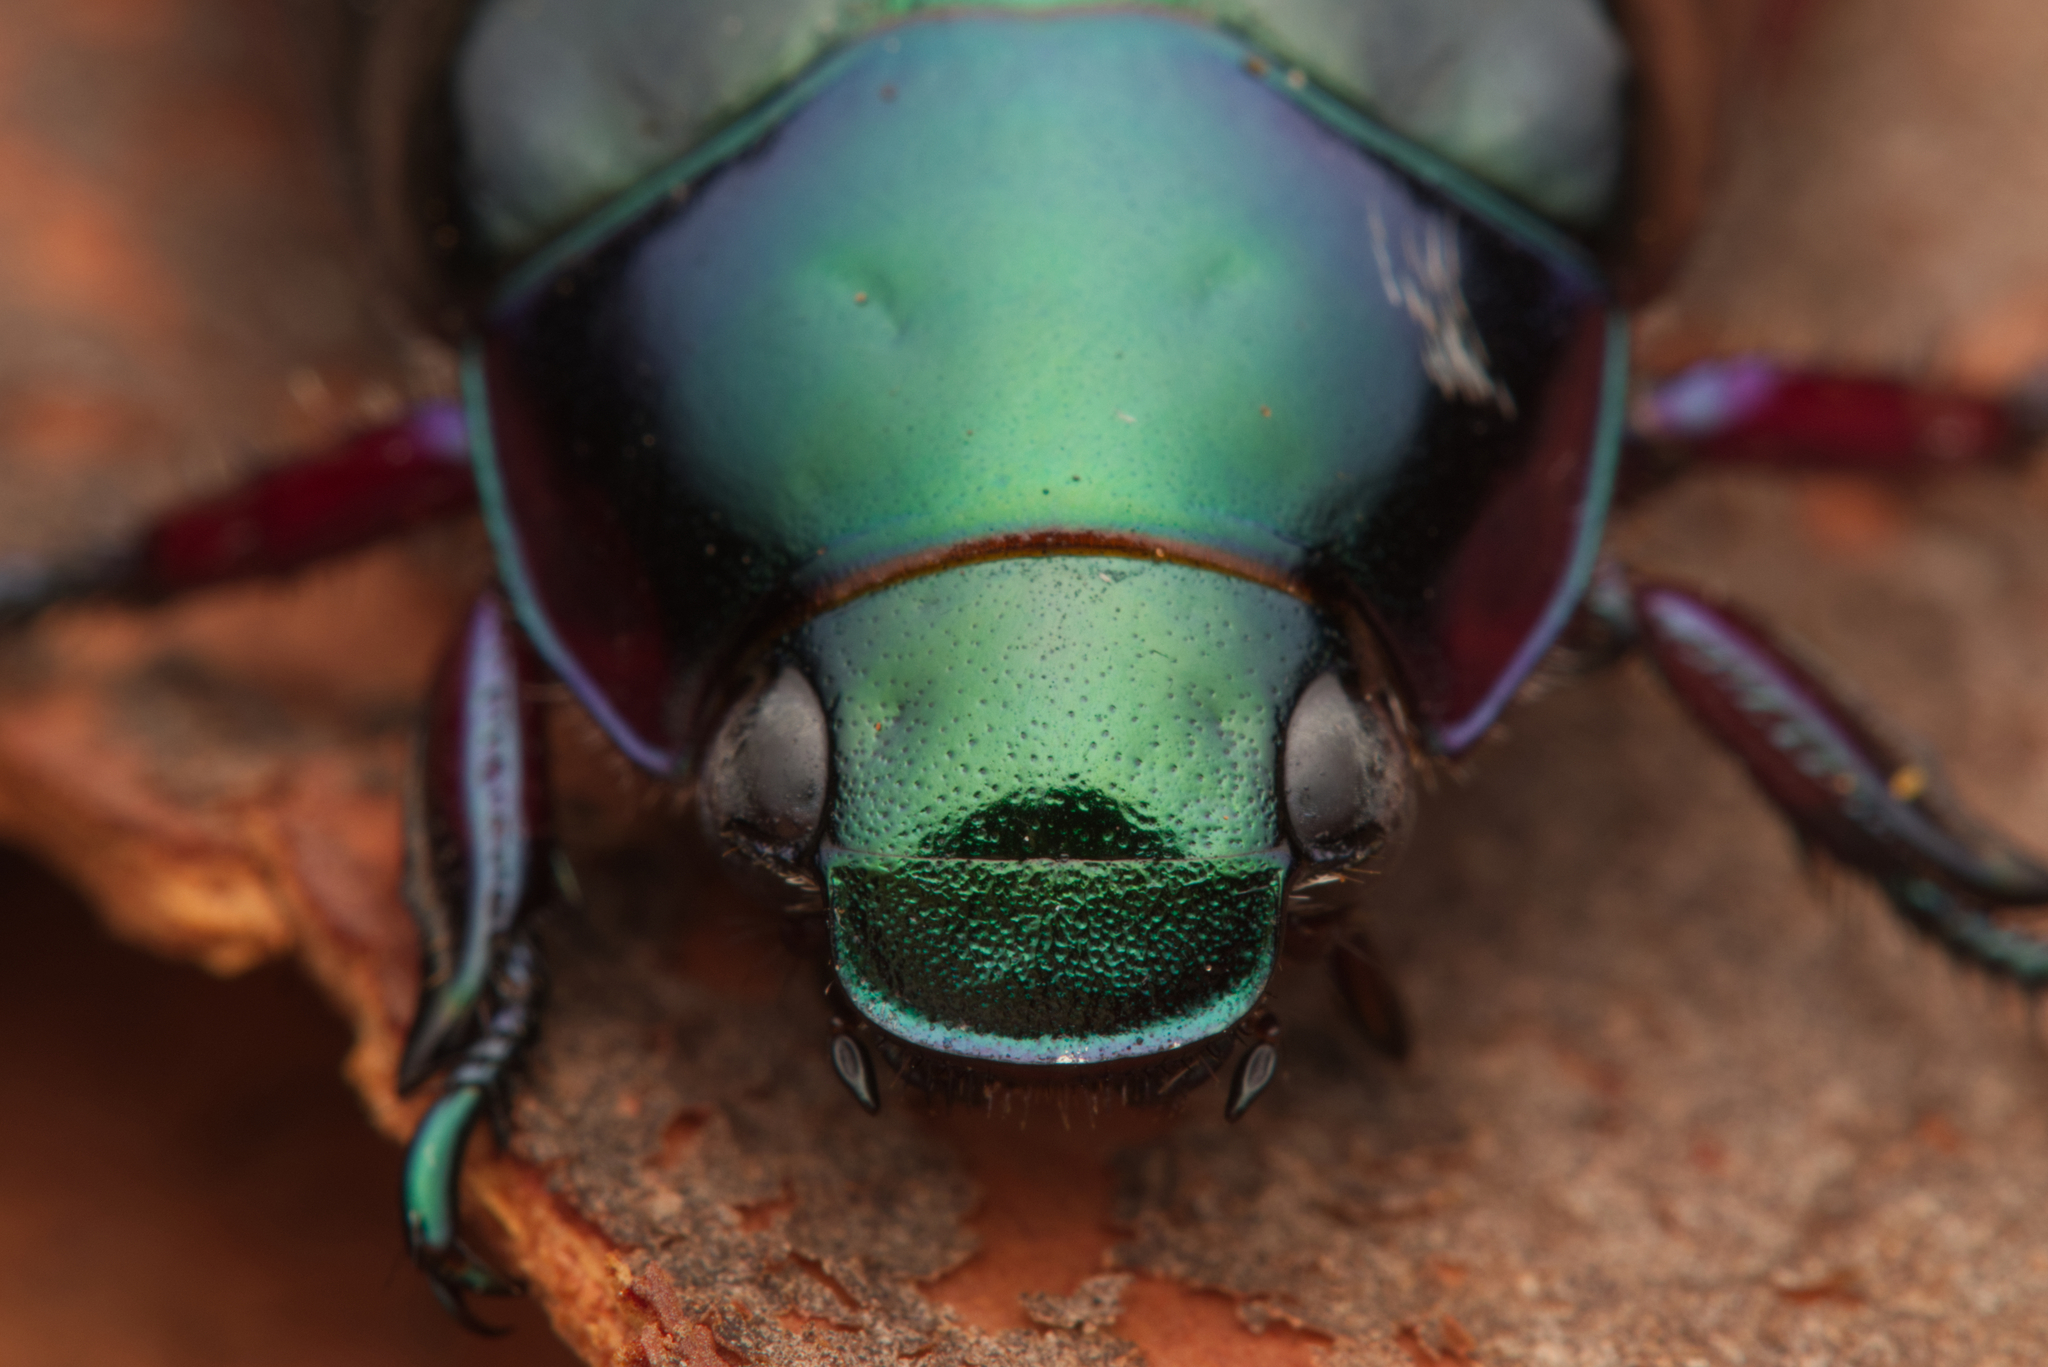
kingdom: Animalia
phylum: Arthropoda
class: Insecta
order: Coleoptera
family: Scarabaeidae
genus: Repsimus
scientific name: Repsimus aeneus
